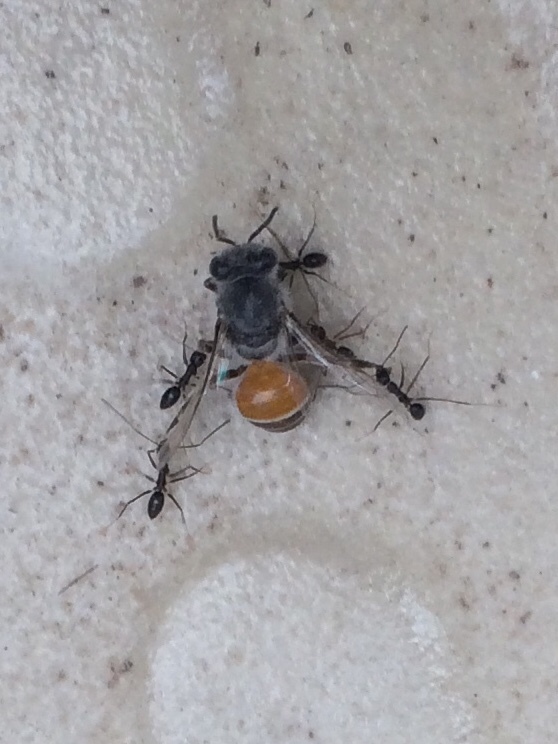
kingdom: Animalia
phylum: Arthropoda
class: Insecta
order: Hymenoptera
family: Formicidae
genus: Paratrechina
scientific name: Paratrechina longicornis
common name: Longhorned crazy ant
